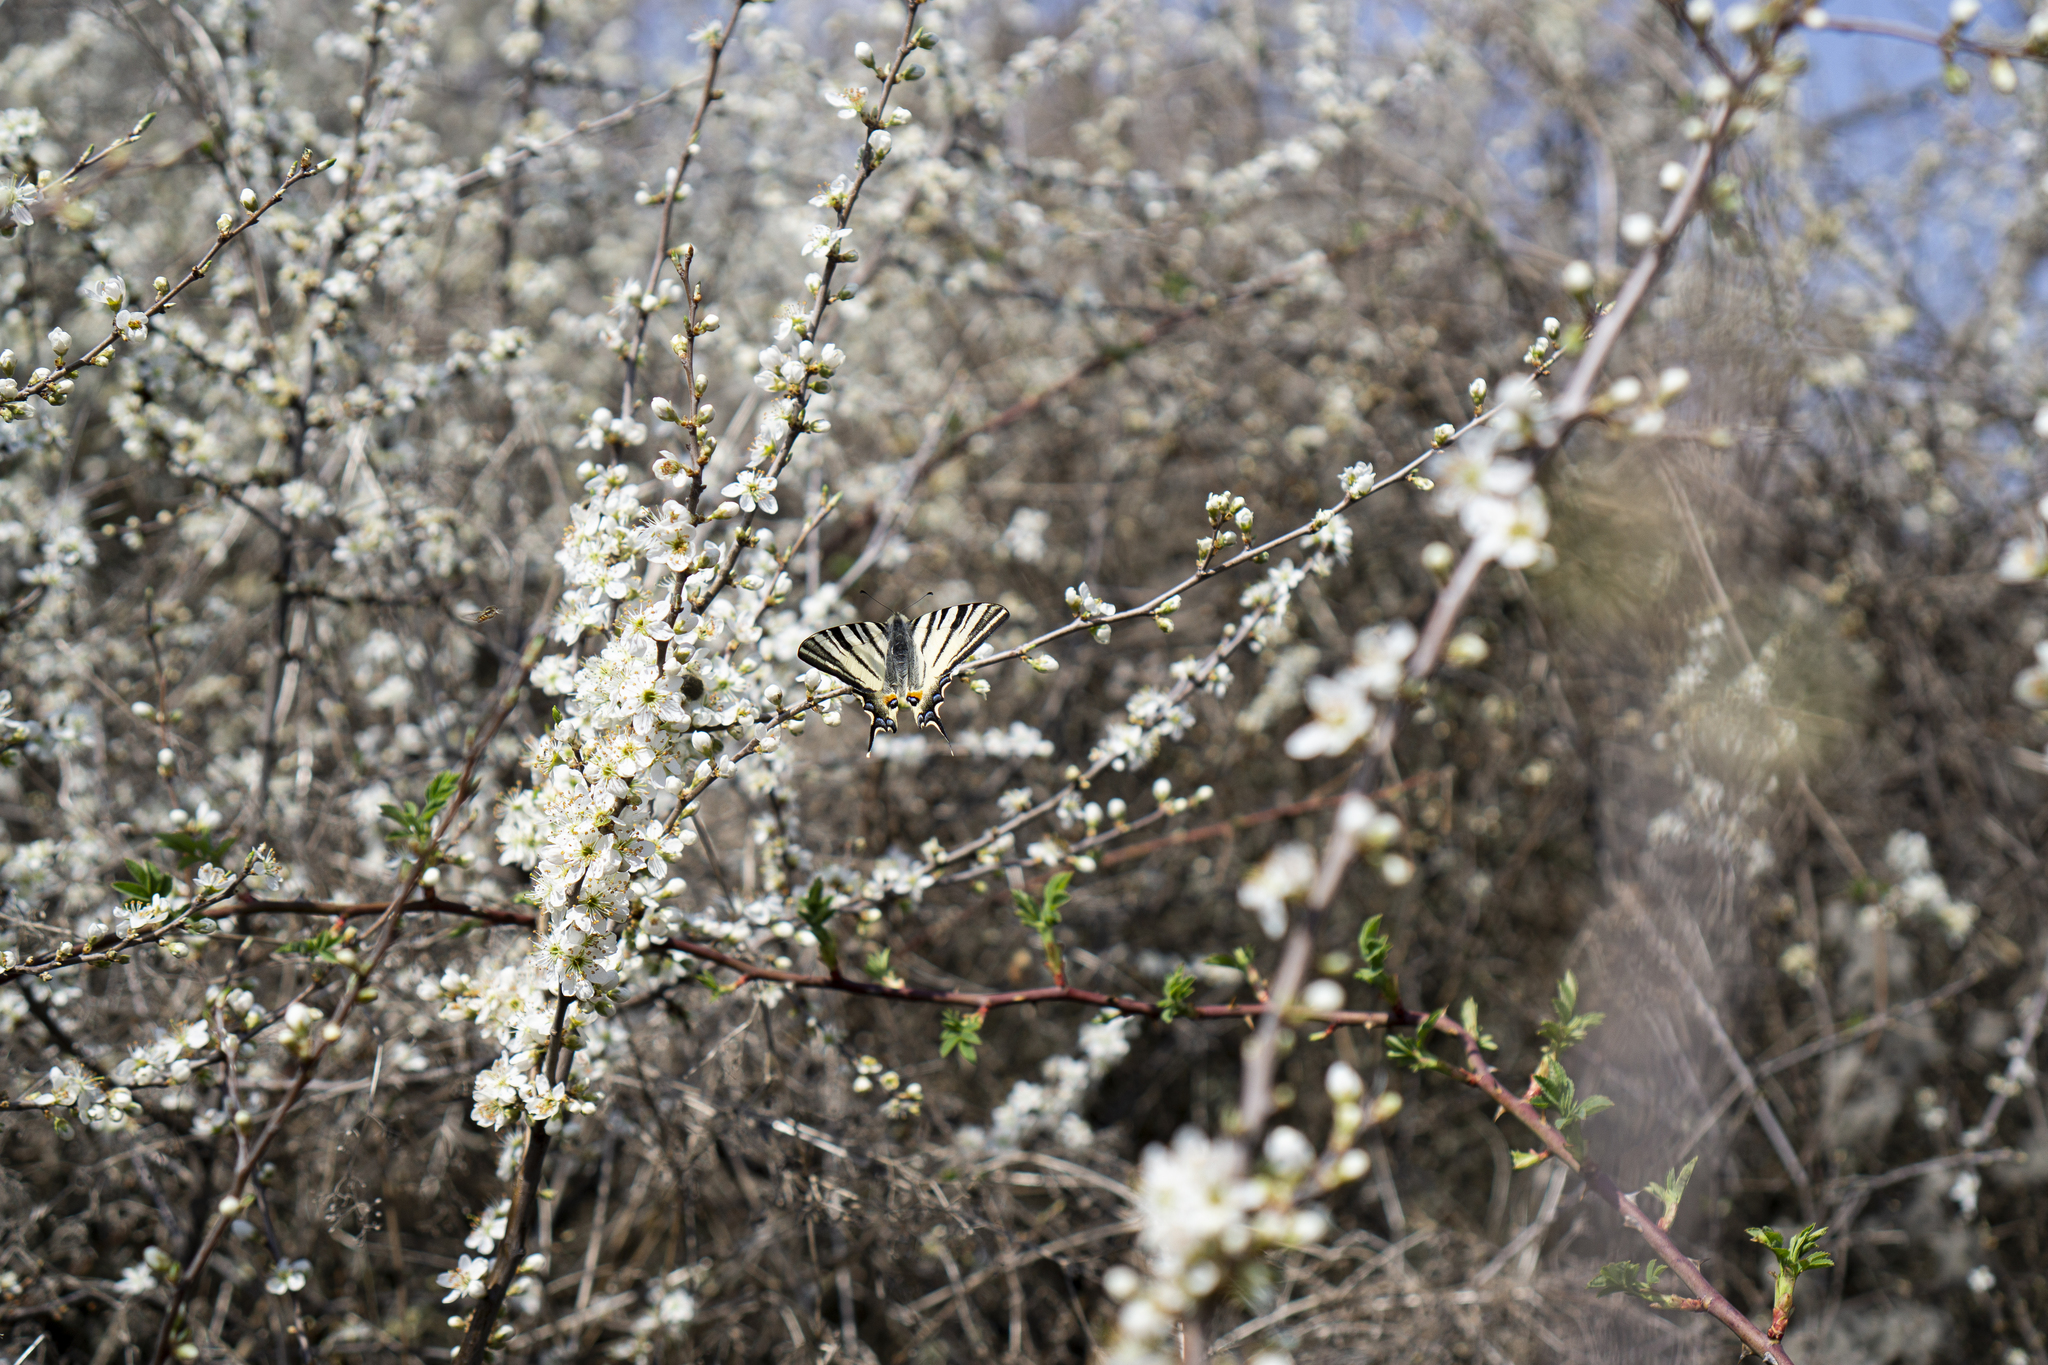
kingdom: Animalia
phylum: Arthropoda
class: Insecta
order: Lepidoptera
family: Papilionidae
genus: Iphiclides
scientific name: Iphiclides podalirius
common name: Scarce swallowtail
